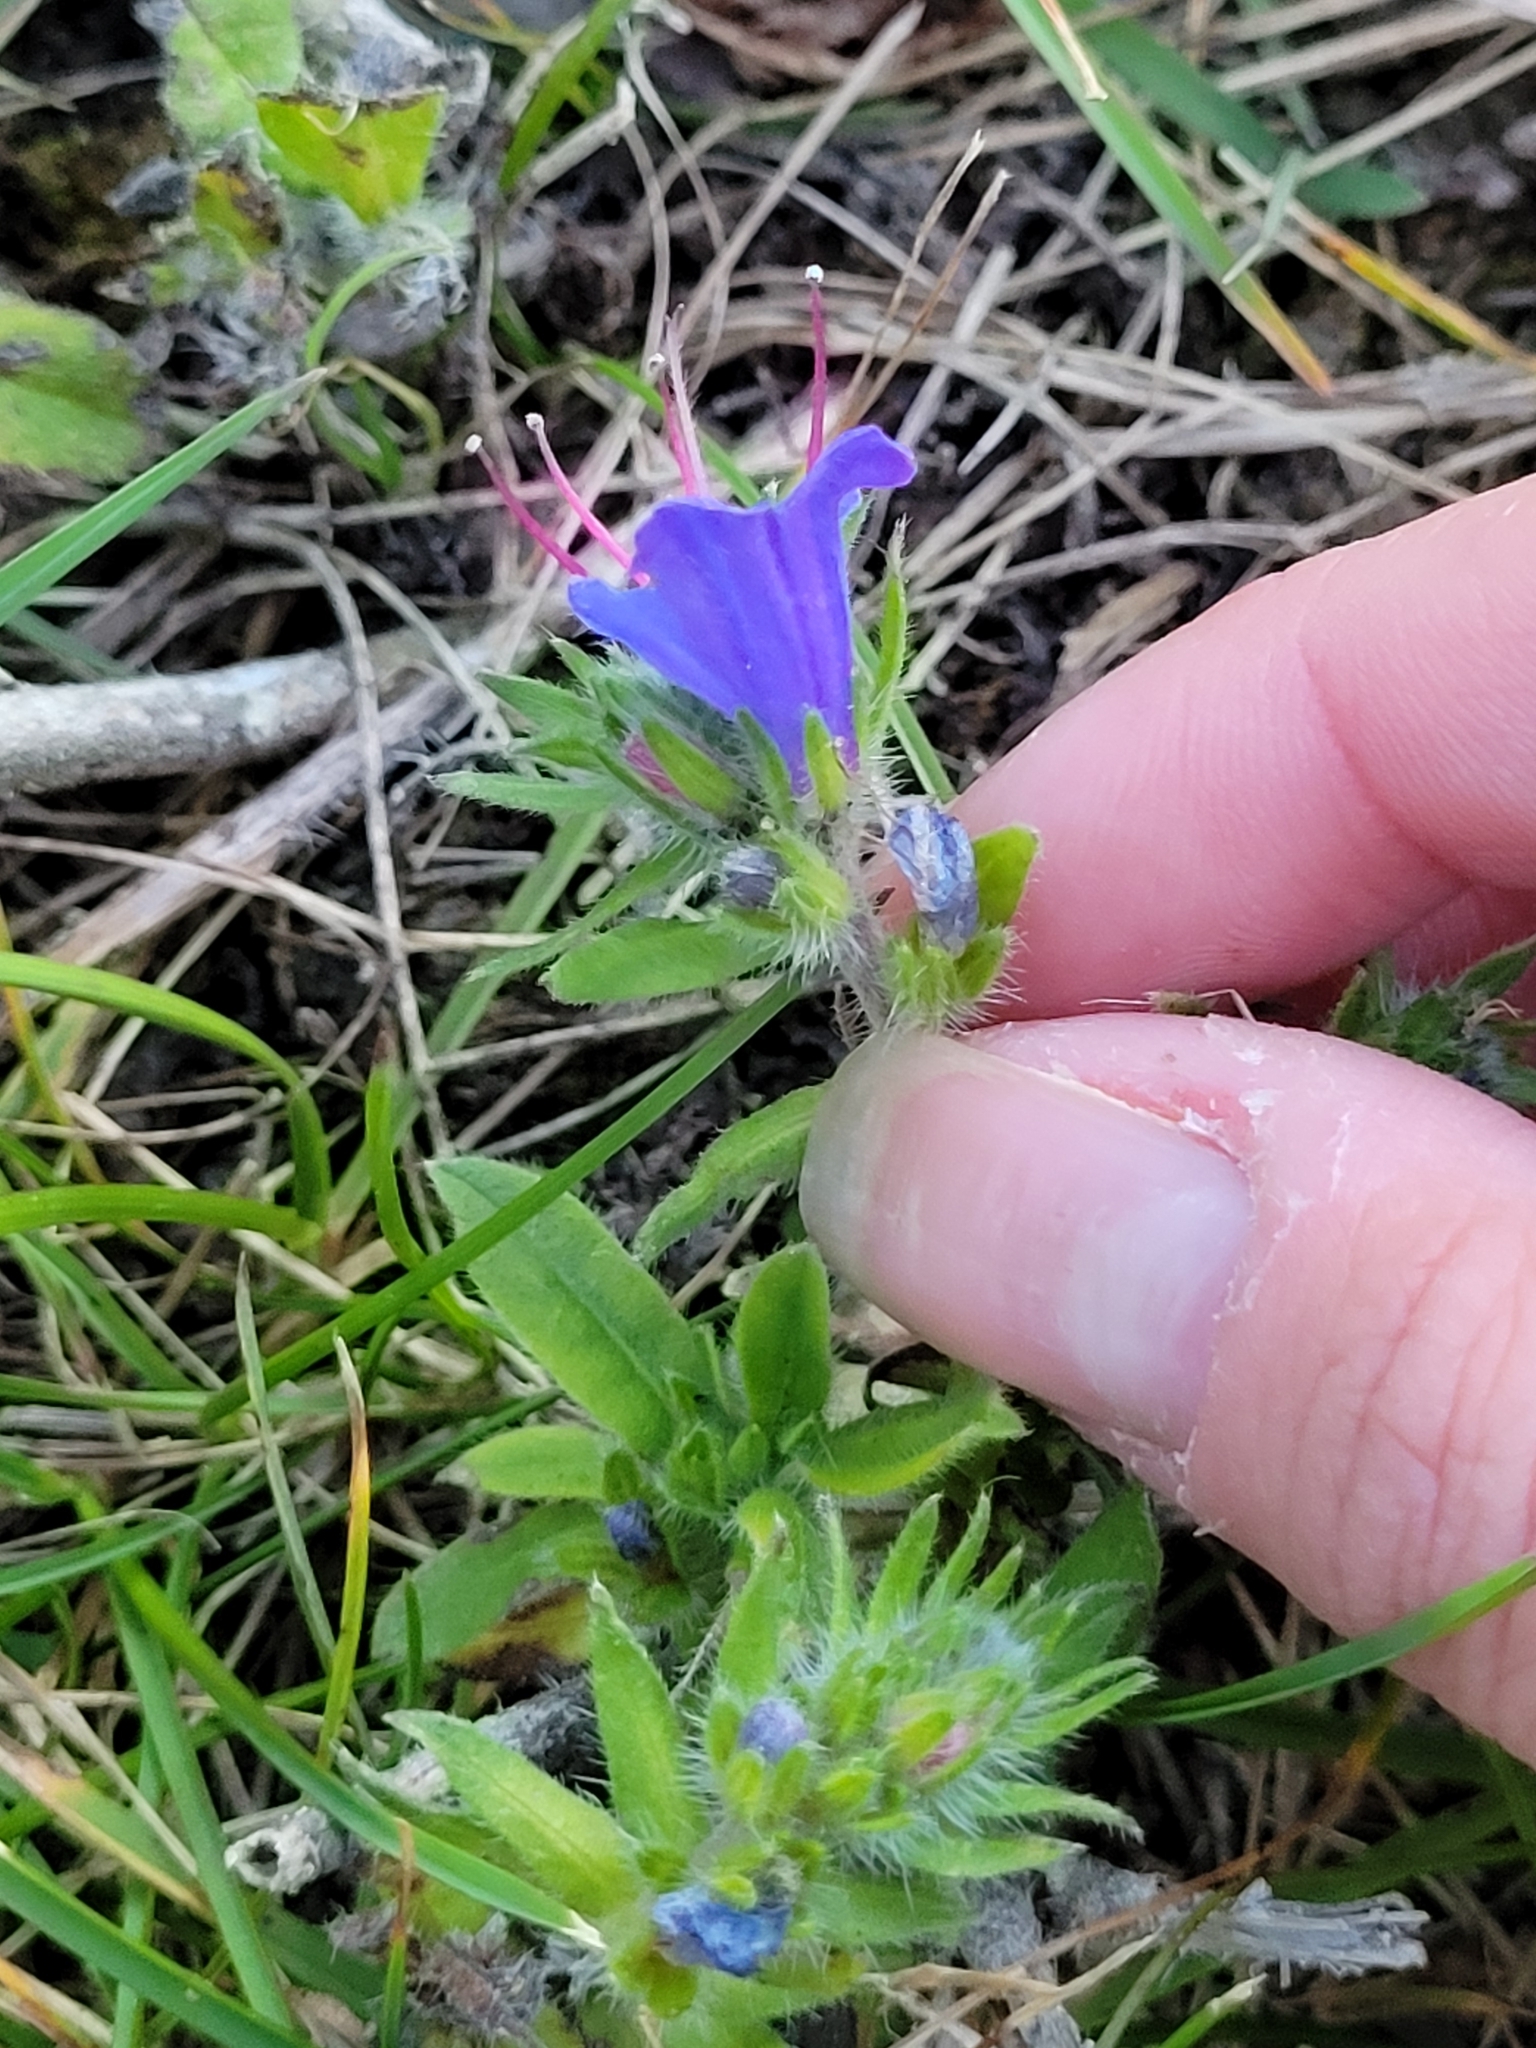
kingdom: Plantae
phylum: Tracheophyta
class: Magnoliopsida
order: Boraginales
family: Boraginaceae
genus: Echium
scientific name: Echium vulgare
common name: Common viper's bugloss
